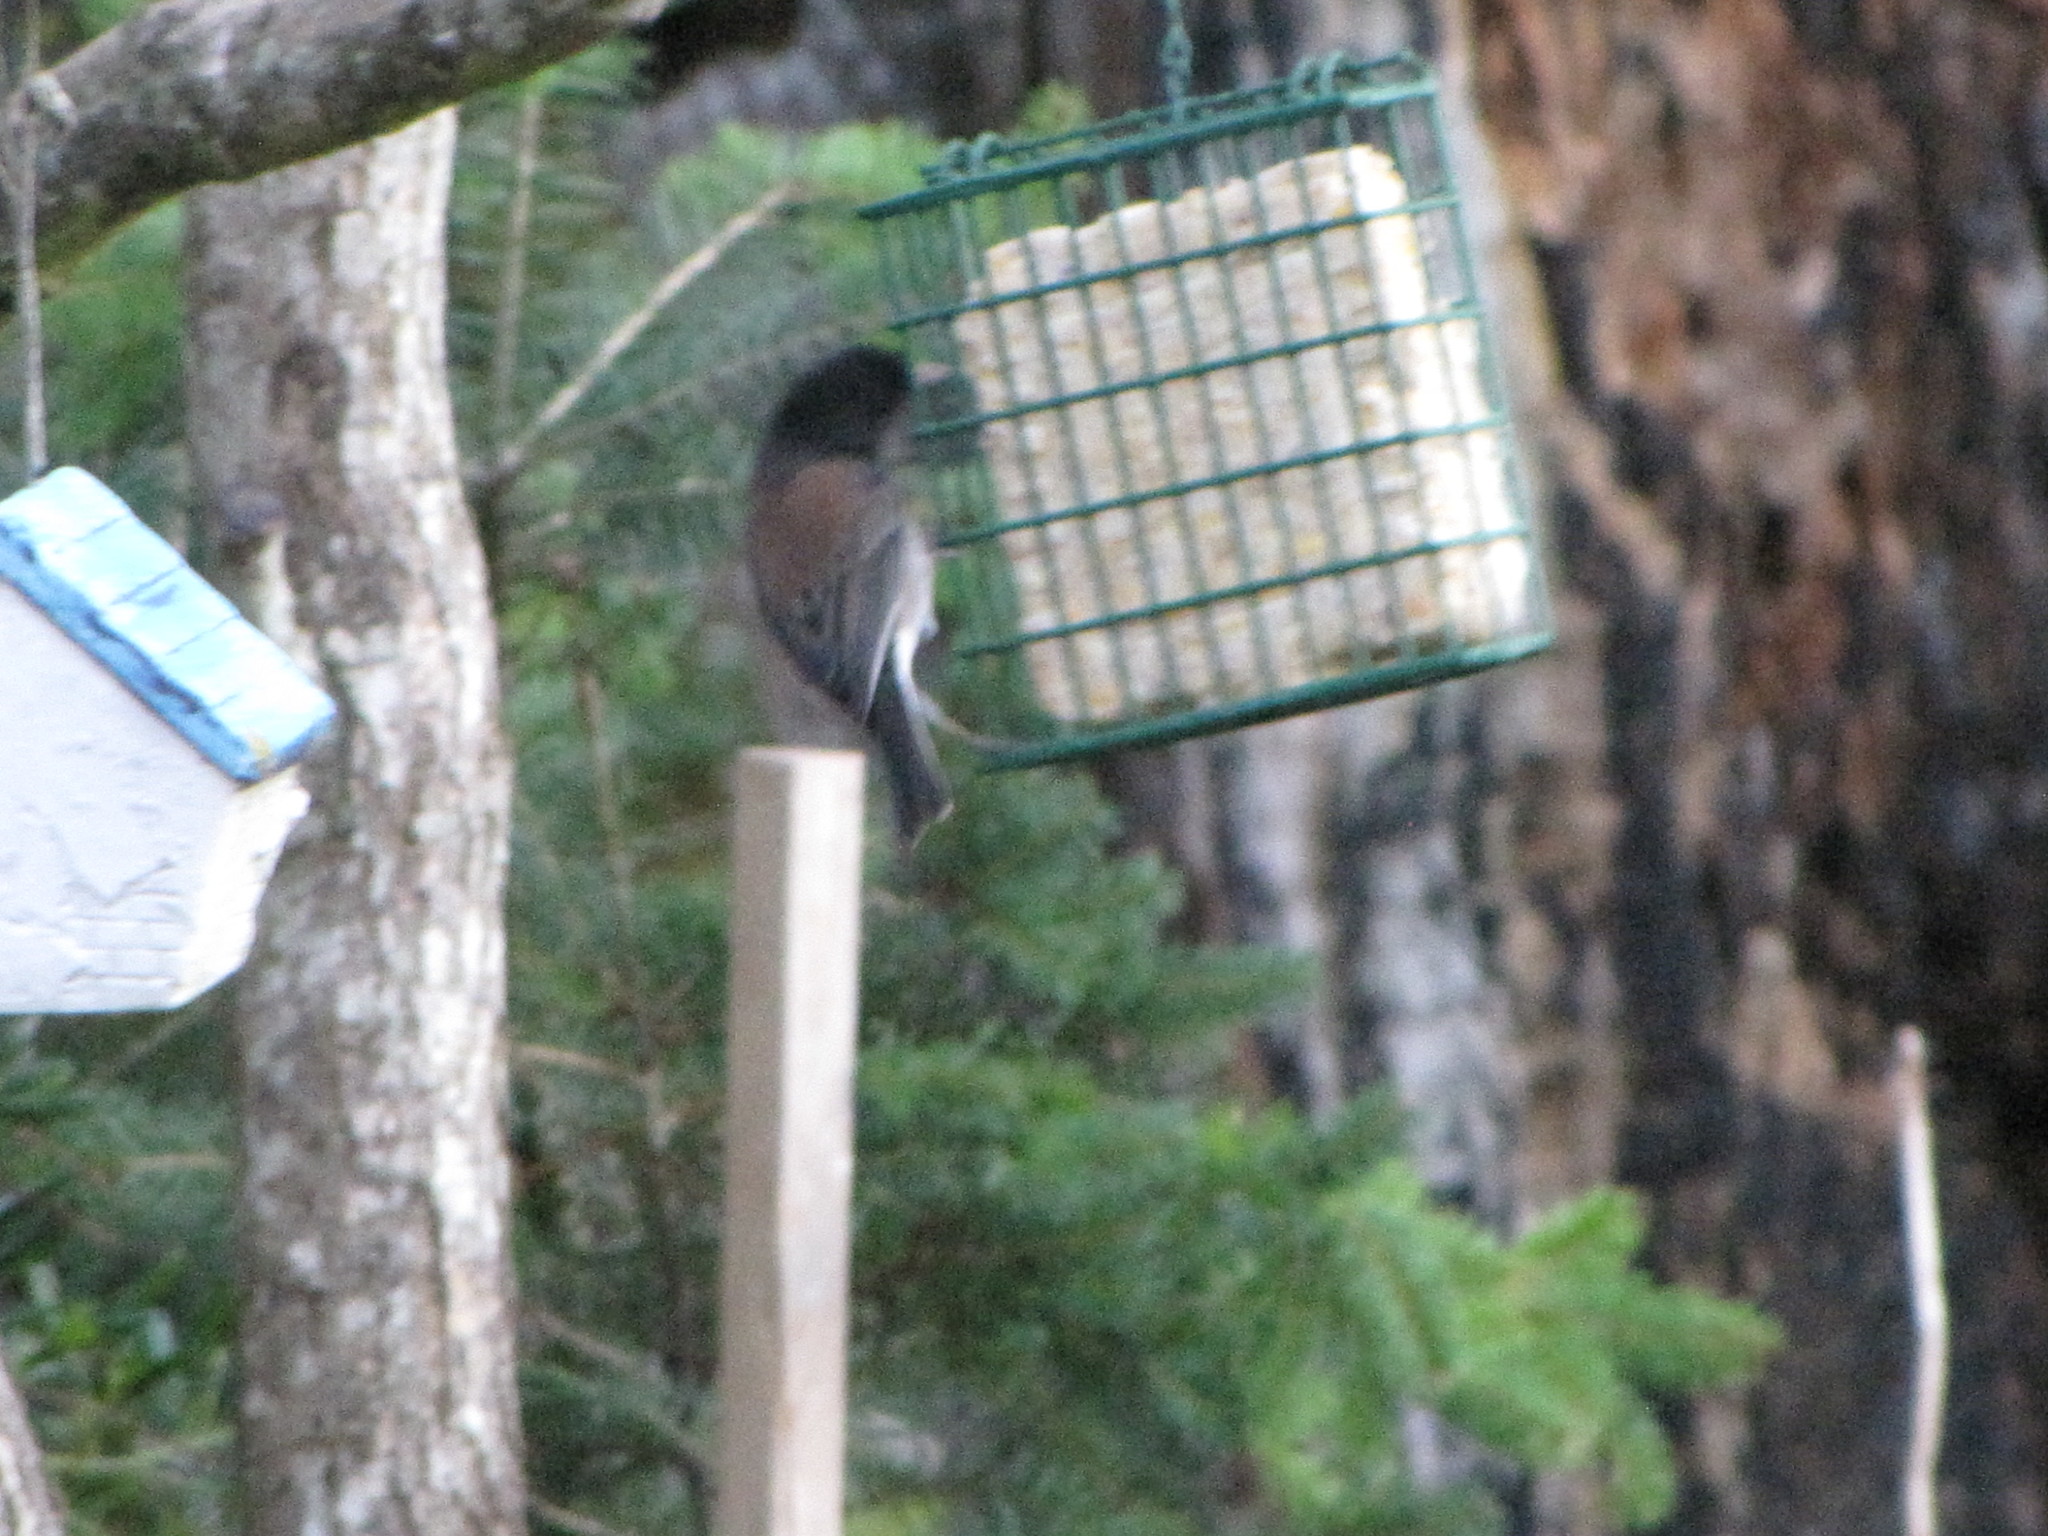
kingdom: Animalia
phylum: Chordata
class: Aves
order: Passeriformes
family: Passerellidae
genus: Junco
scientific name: Junco hyemalis
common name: Dark-eyed junco
